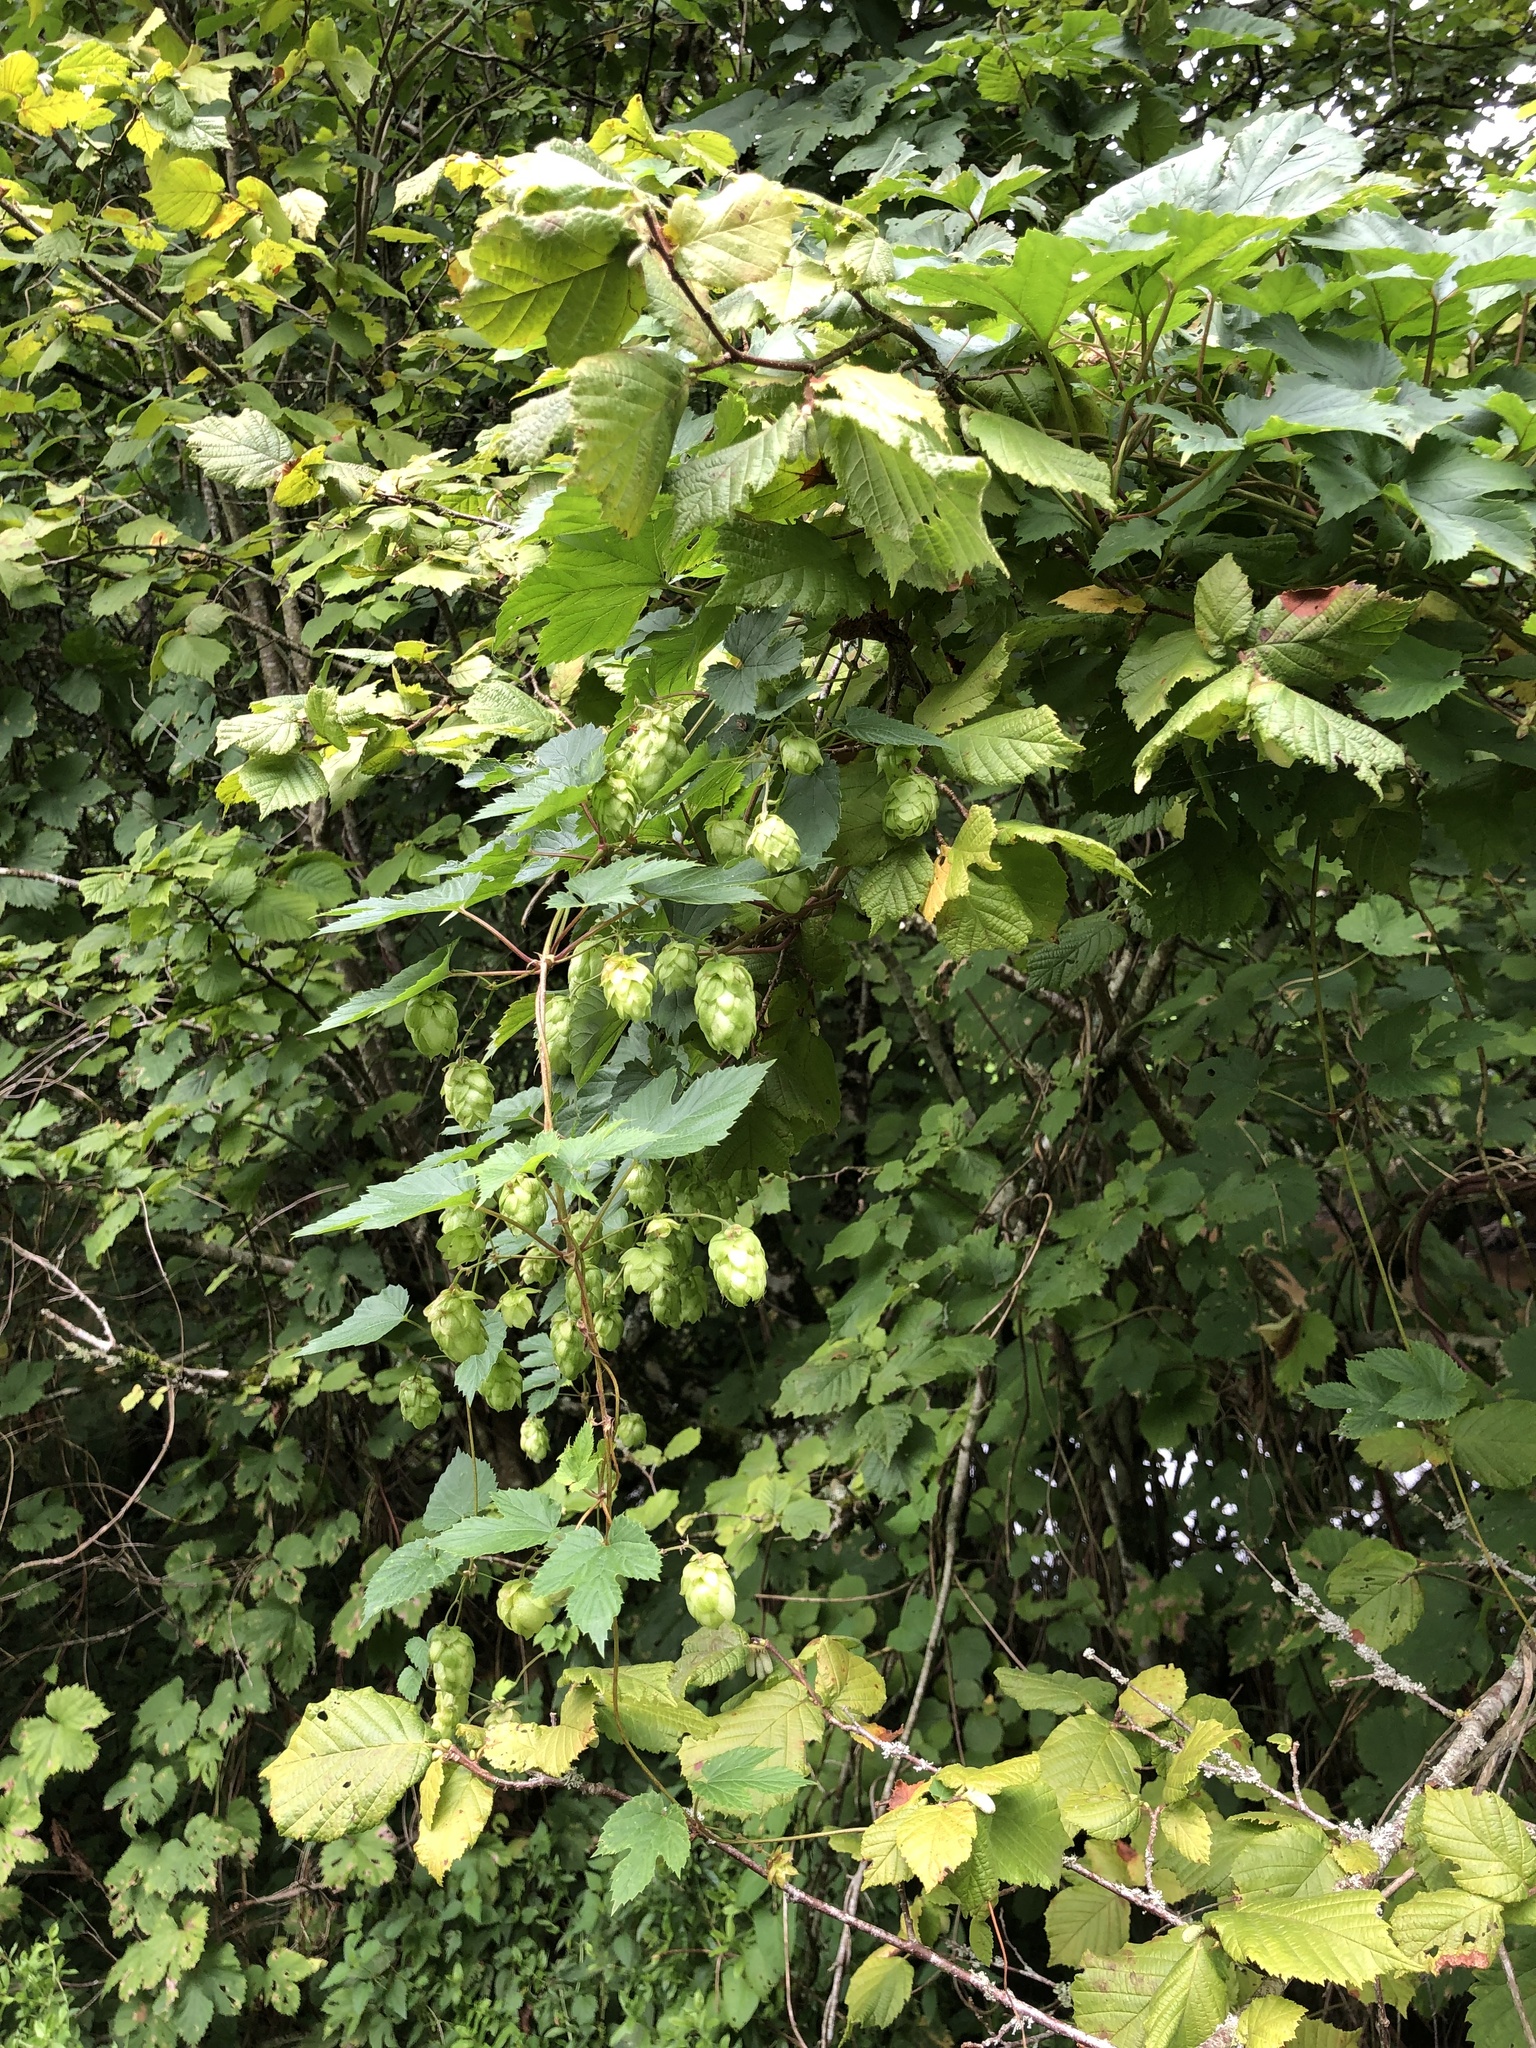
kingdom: Plantae
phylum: Tracheophyta
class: Magnoliopsida
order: Rosales
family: Cannabaceae
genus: Humulus
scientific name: Humulus lupulus
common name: Hop
